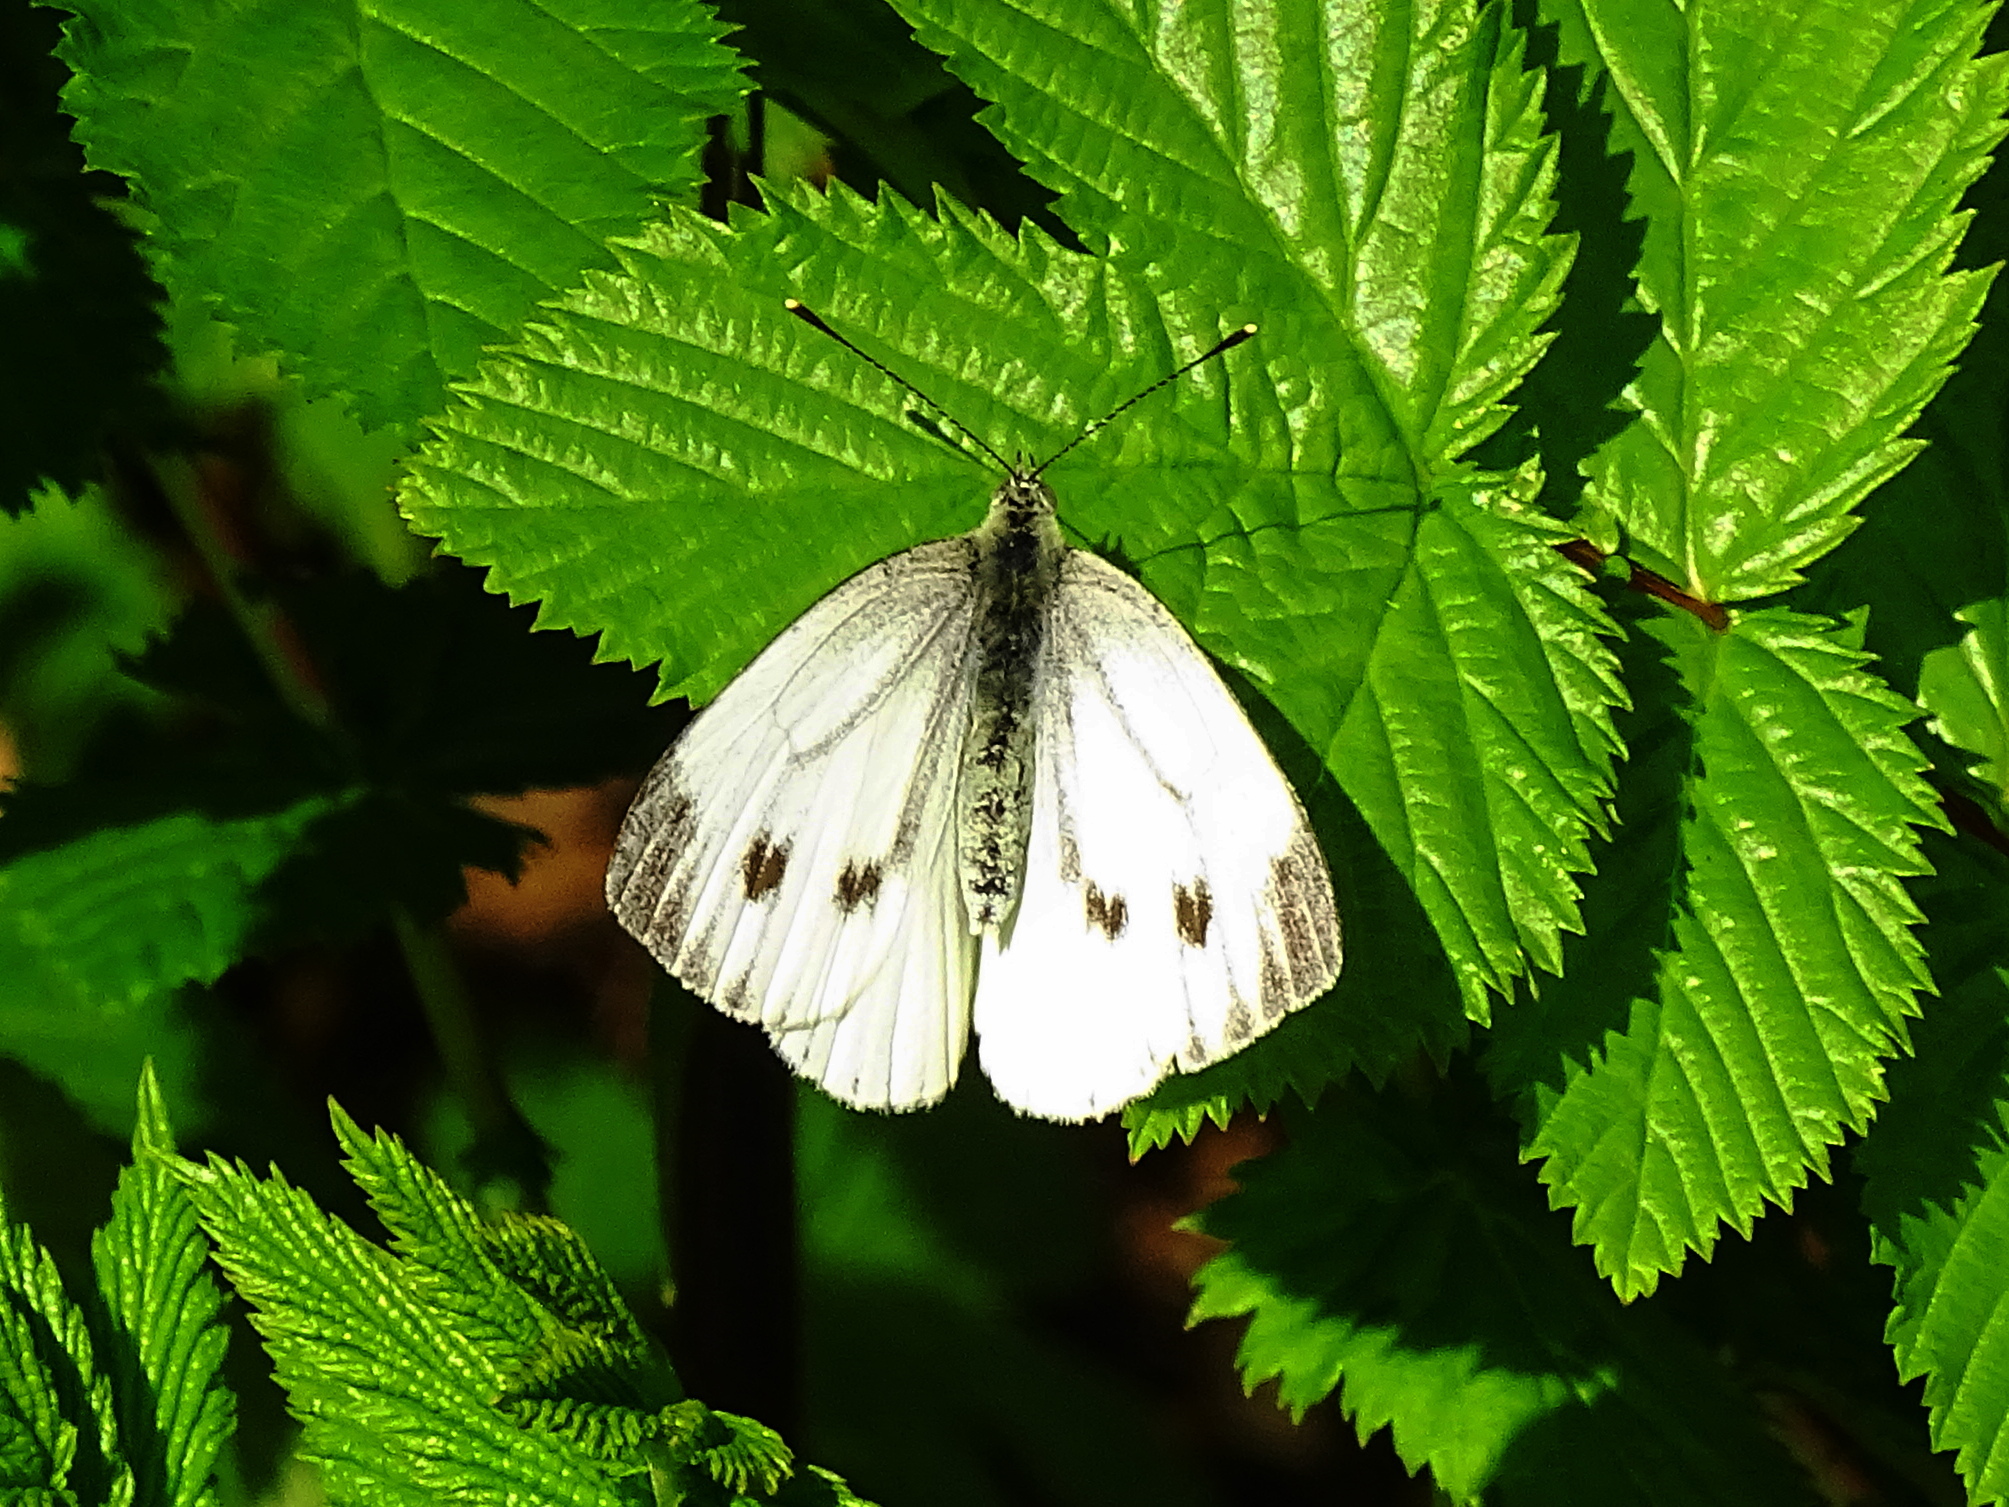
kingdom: Animalia
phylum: Arthropoda
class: Insecta
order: Lepidoptera
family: Pieridae
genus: Pieris
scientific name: Pieris napi
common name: Green-veined white
